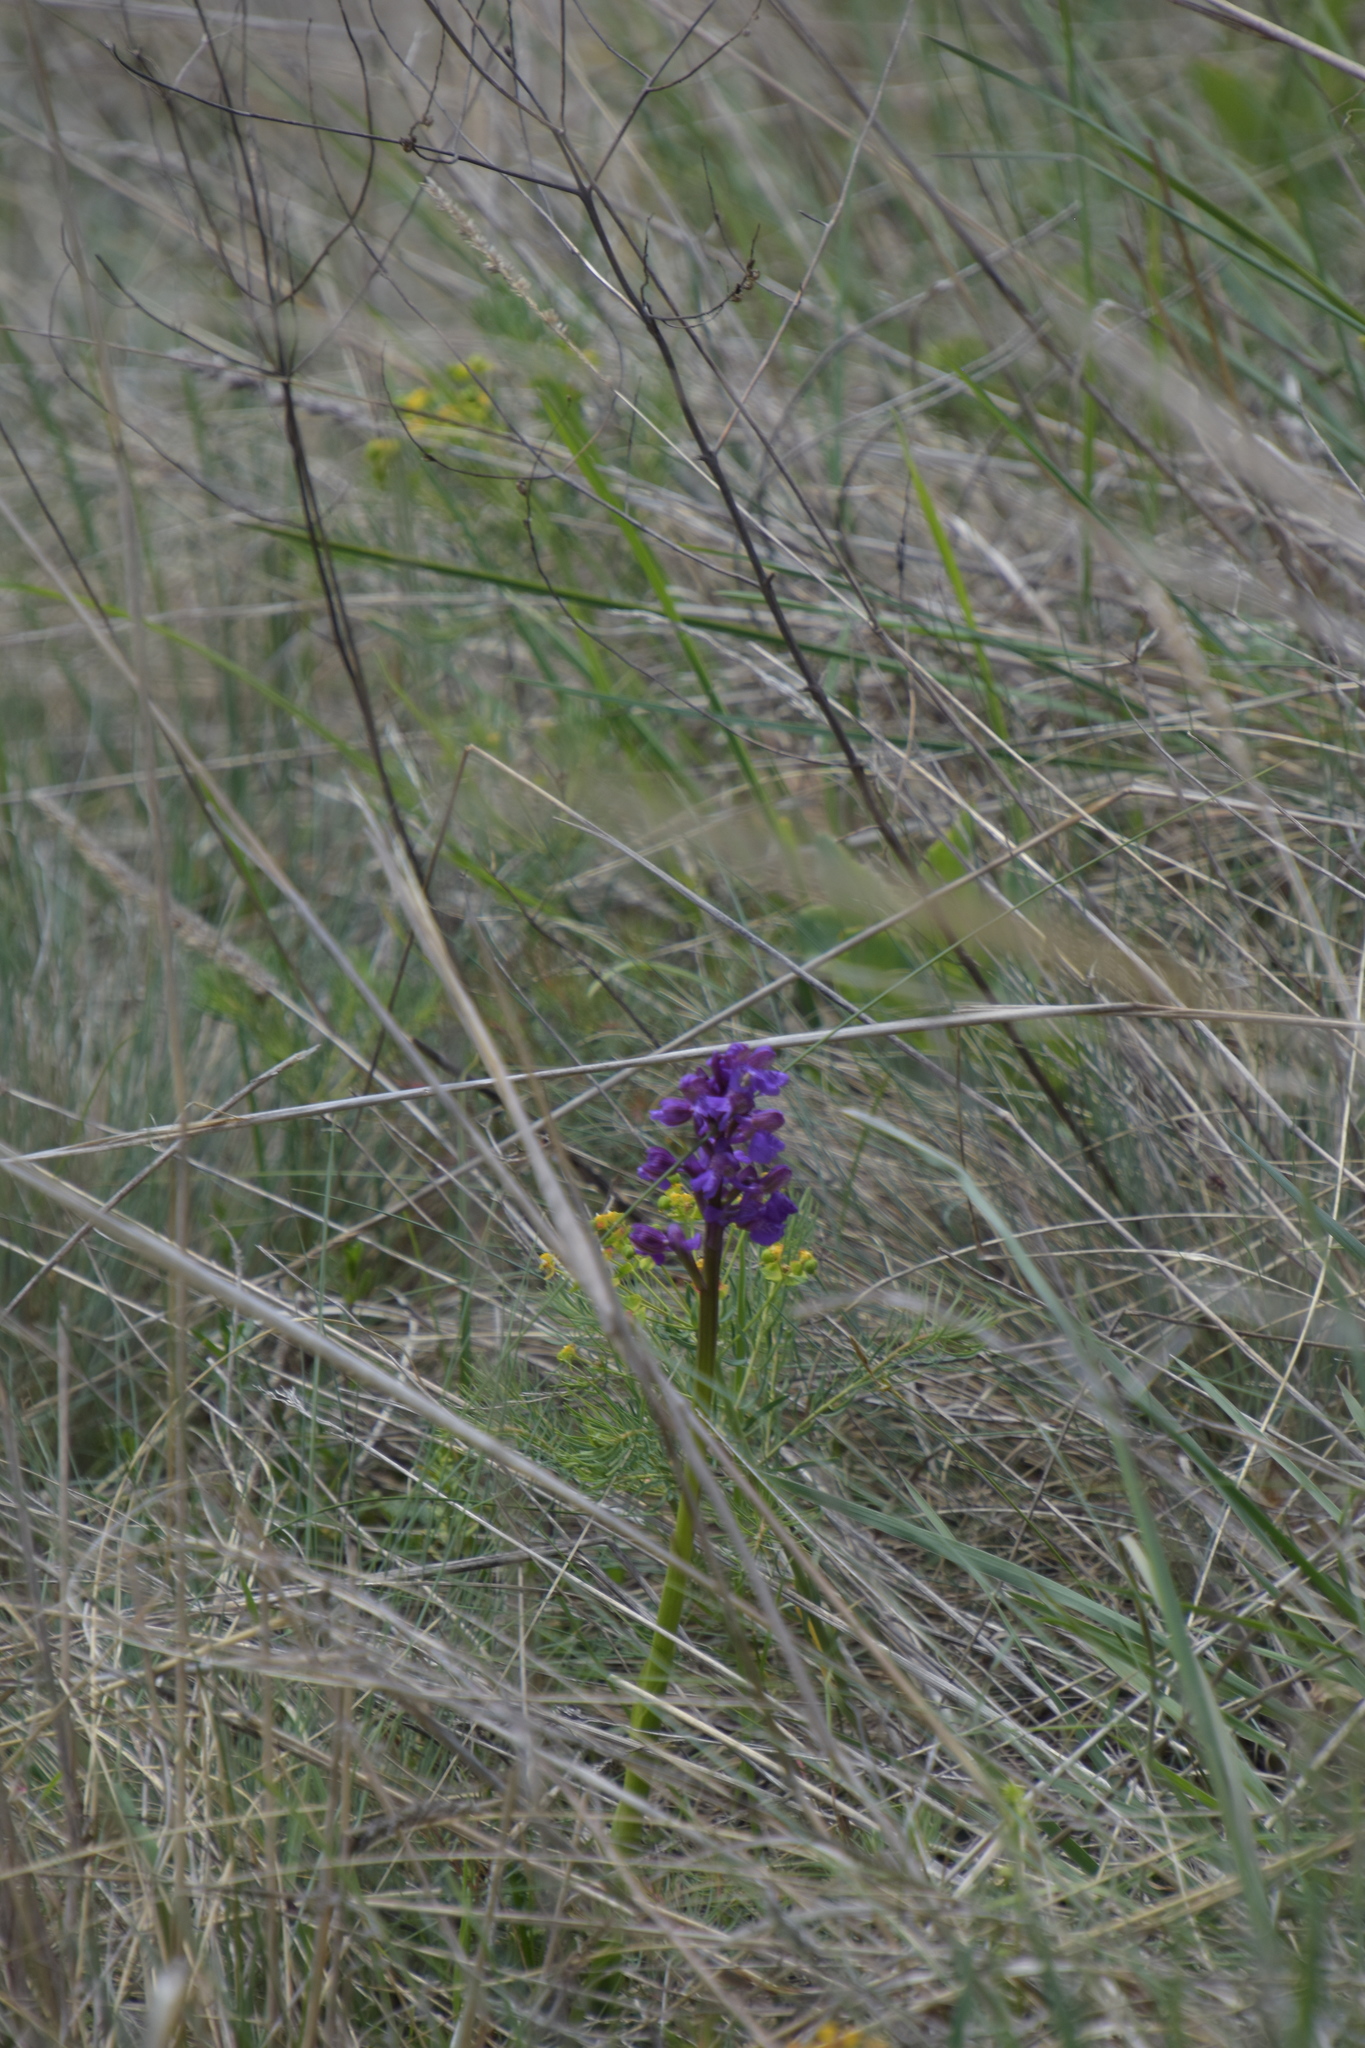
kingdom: Plantae
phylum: Tracheophyta
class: Liliopsida
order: Asparagales
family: Orchidaceae
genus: Anacamptis
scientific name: Anacamptis morio
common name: Green-winged orchid
